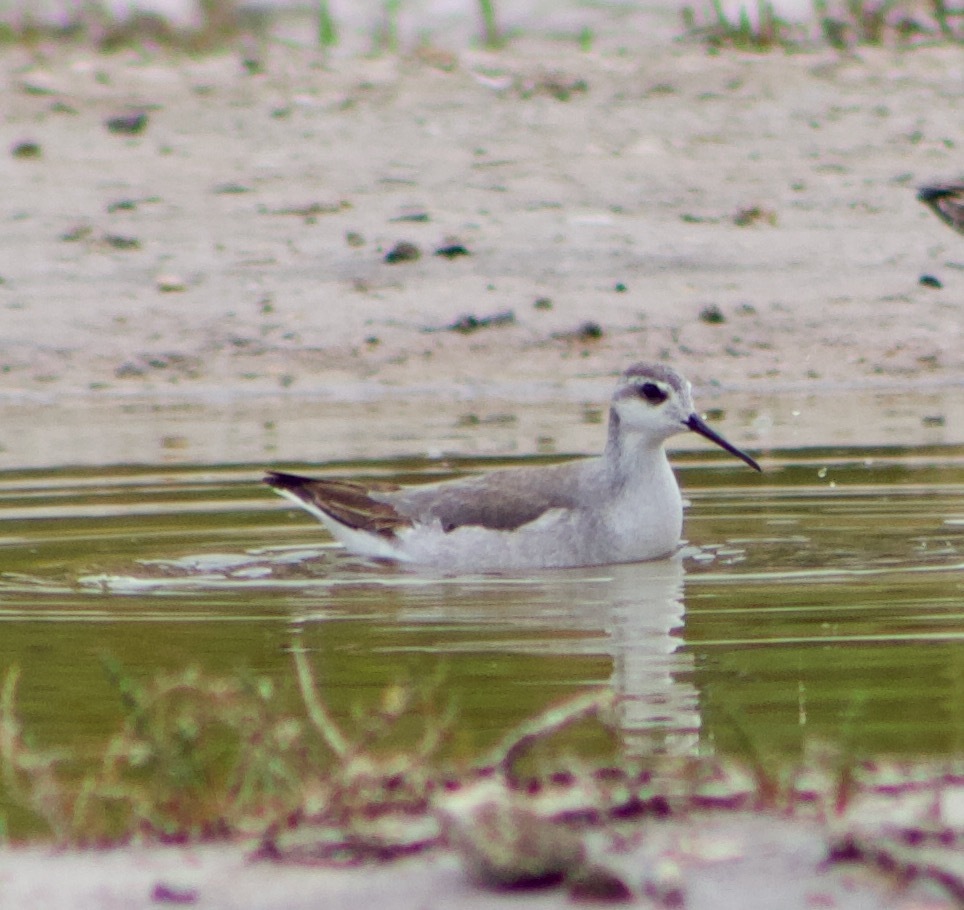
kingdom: Animalia
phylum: Chordata
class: Aves
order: Charadriiformes
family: Scolopacidae
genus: Phalaropus
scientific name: Phalaropus tricolor
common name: Wilson's phalarope
